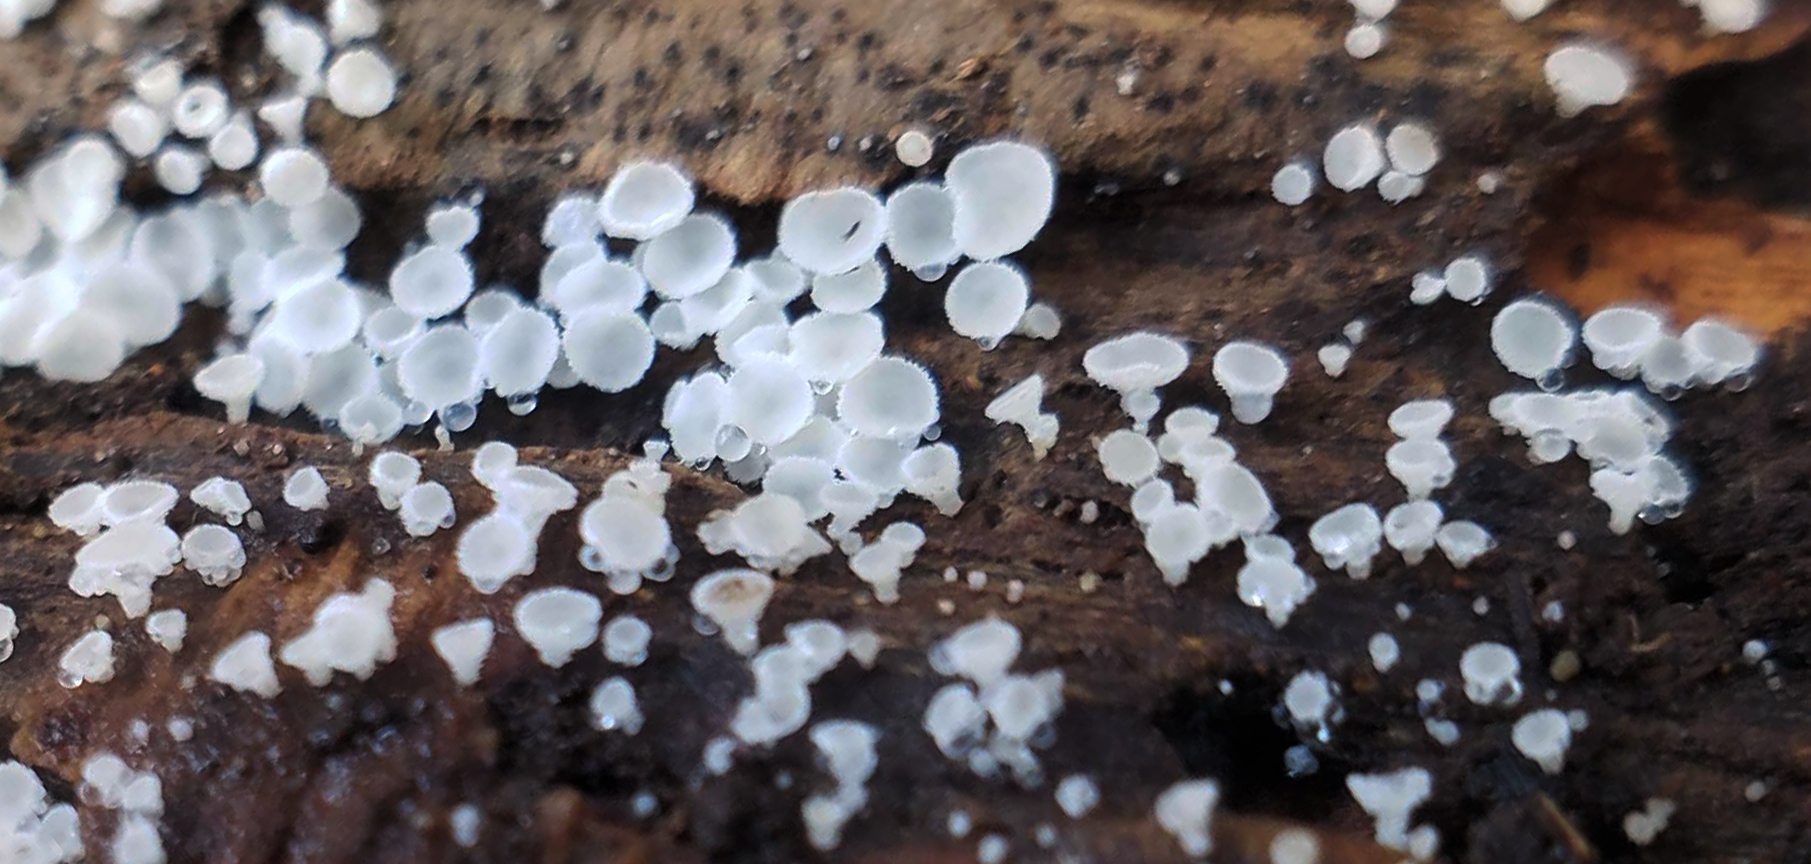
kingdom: Fungi
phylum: Ascomycota
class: Leotiomycetes
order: Helotiales
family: Lachnaceae
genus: Lachnum
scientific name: Lachnum virgineum
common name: Snowy disco
